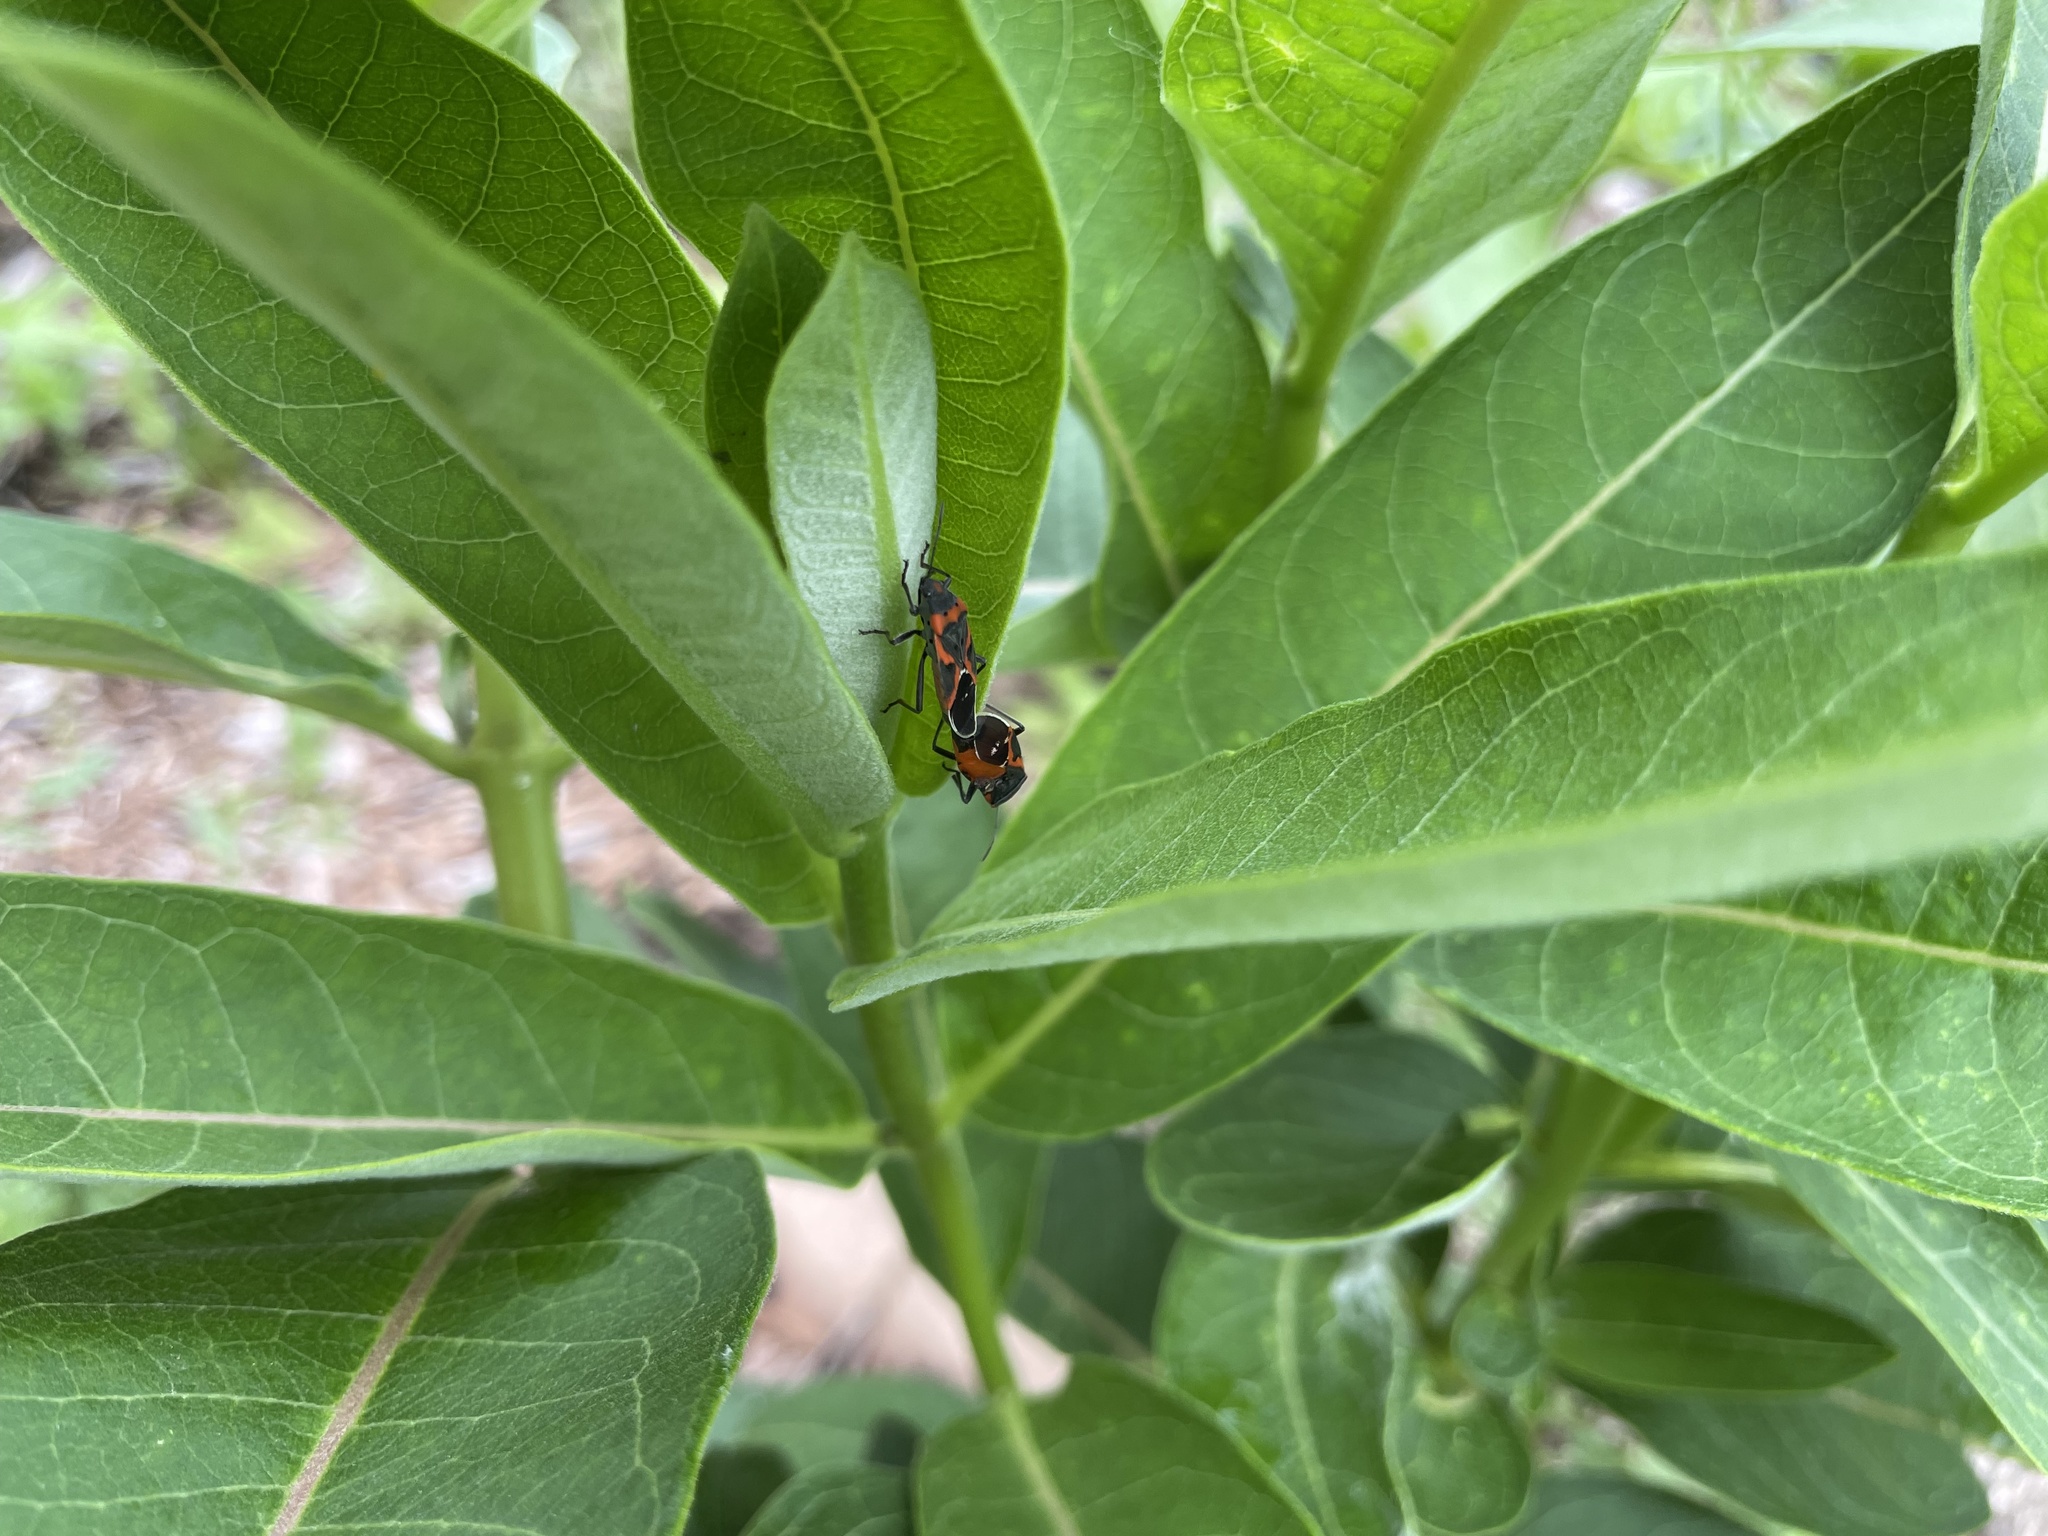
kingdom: Animalia
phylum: Arthropoda
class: Insecta
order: Hemiptera
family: Lygaeidae
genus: Lygaeus
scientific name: Lygaeus kalmii
